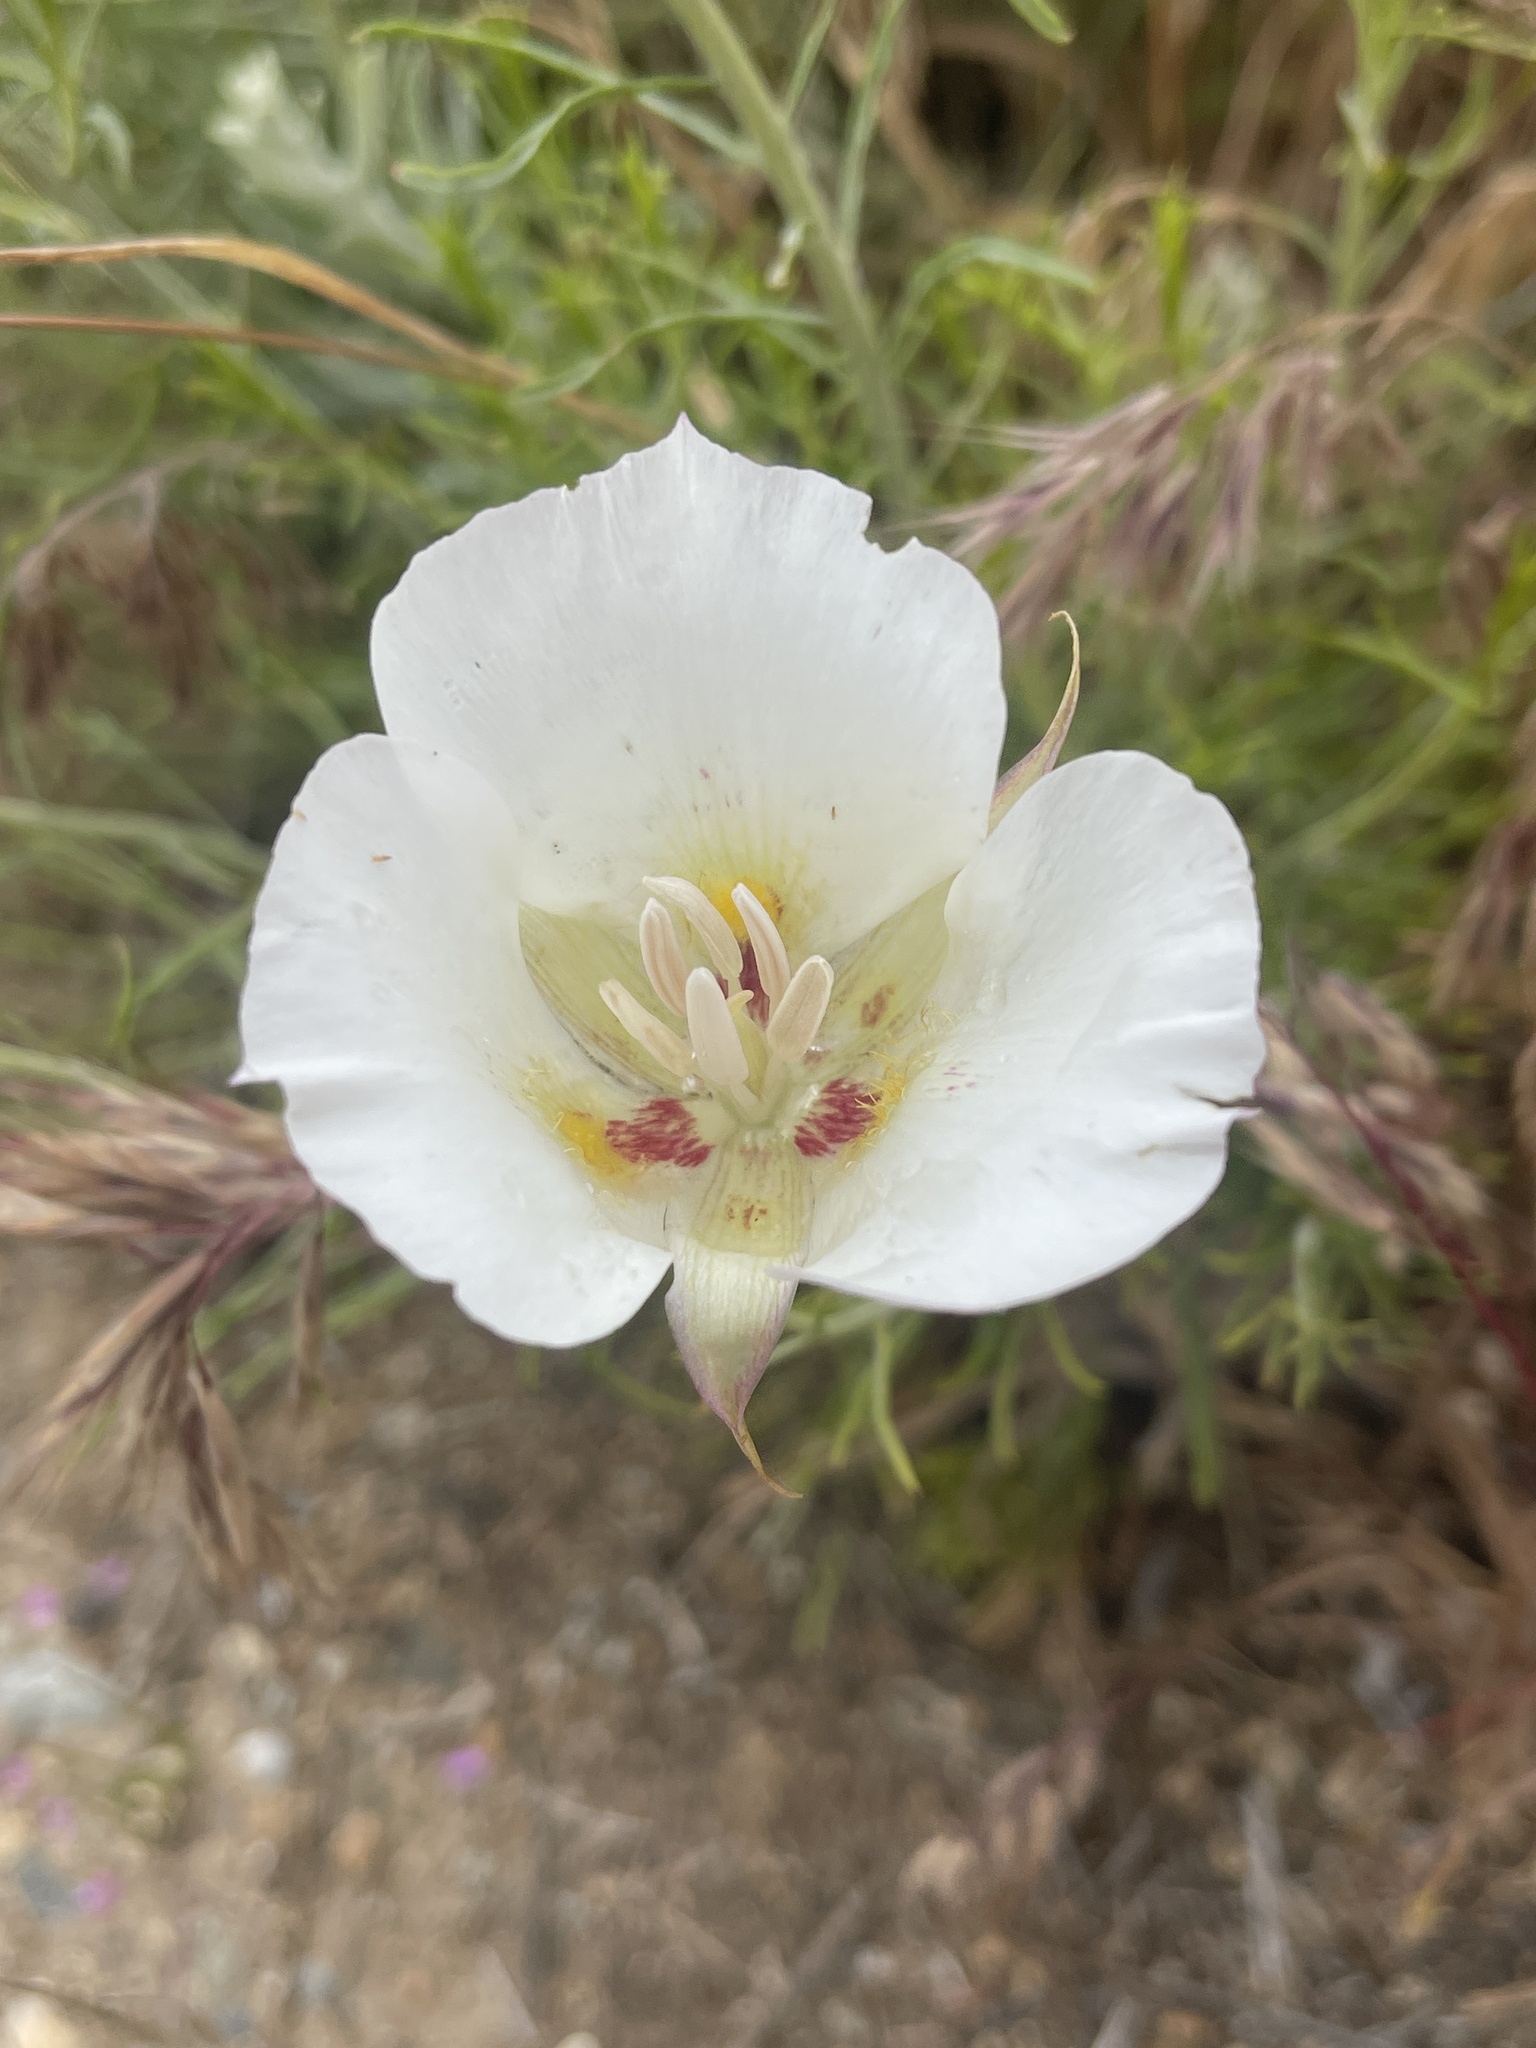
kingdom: Plantae
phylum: Tracheophyta
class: Liliopsida
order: Liliales
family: Liliaceae
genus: Calochortus
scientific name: Calochortus venustus
